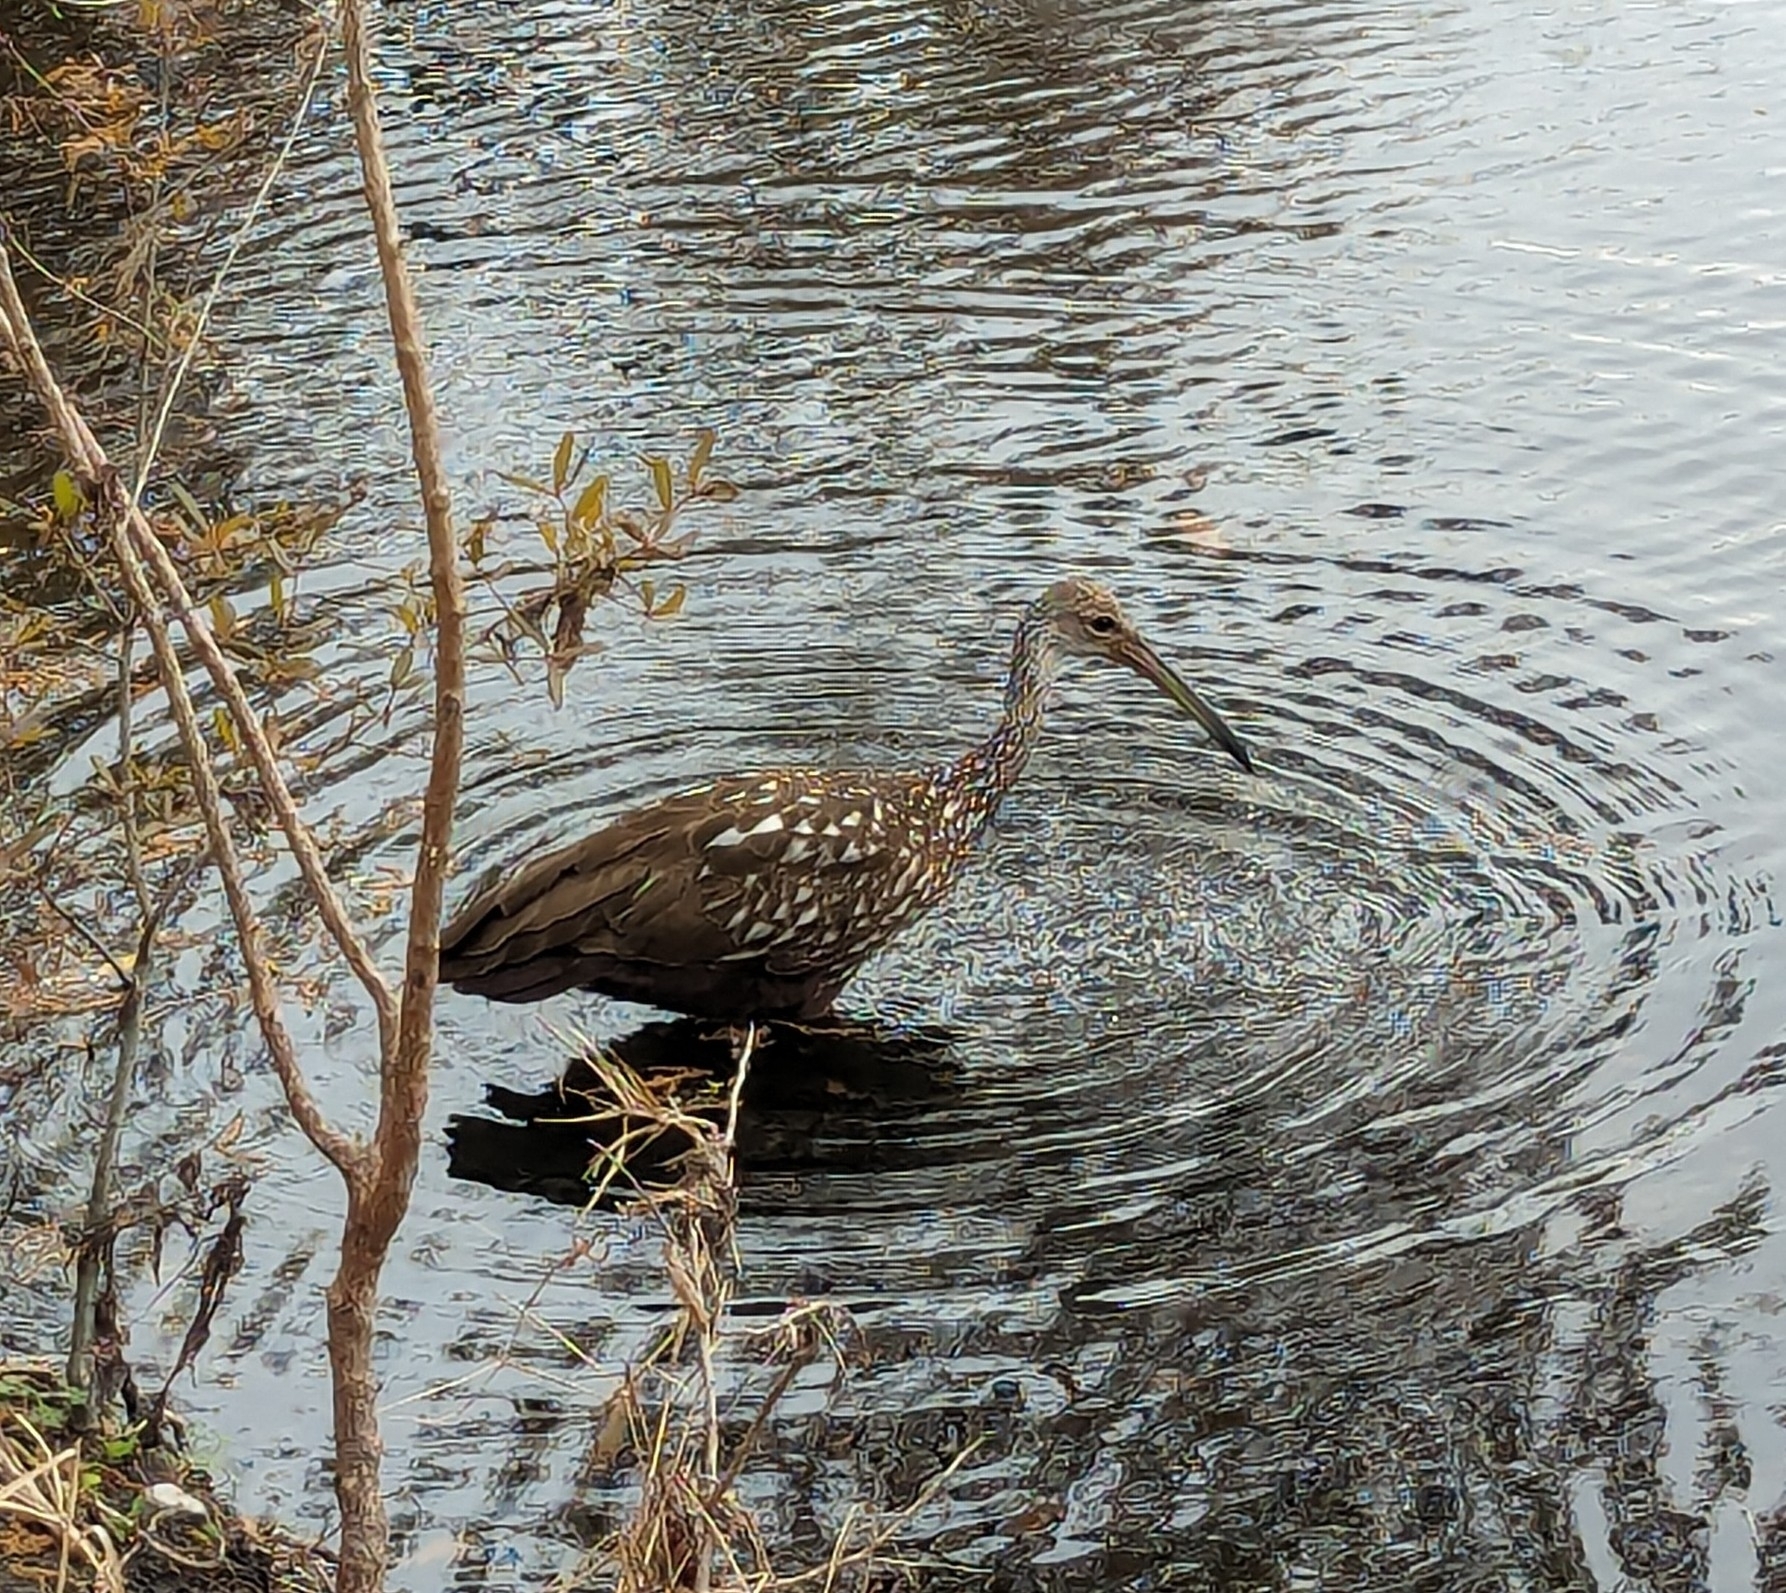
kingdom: Animalia
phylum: Chordata
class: Aves
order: Gruiformes
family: Aramidae
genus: Aramus
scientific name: Aramus guarauna
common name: Limpkin
